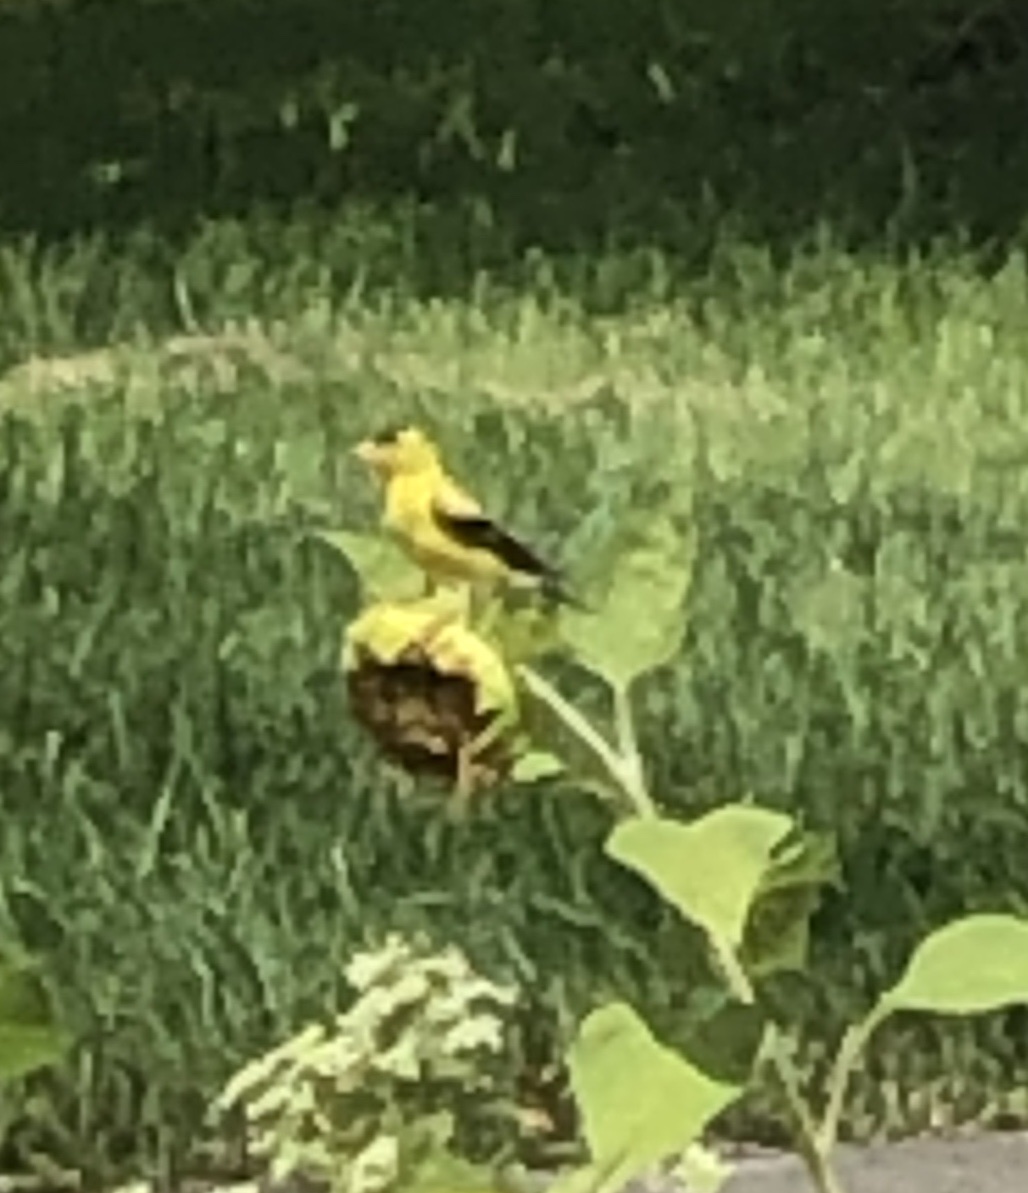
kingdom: Animalia
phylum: Chordata
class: Aves
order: Passeriformes
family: Fringillidae
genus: Spinus
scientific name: Spinus tristis
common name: American goldfinch
